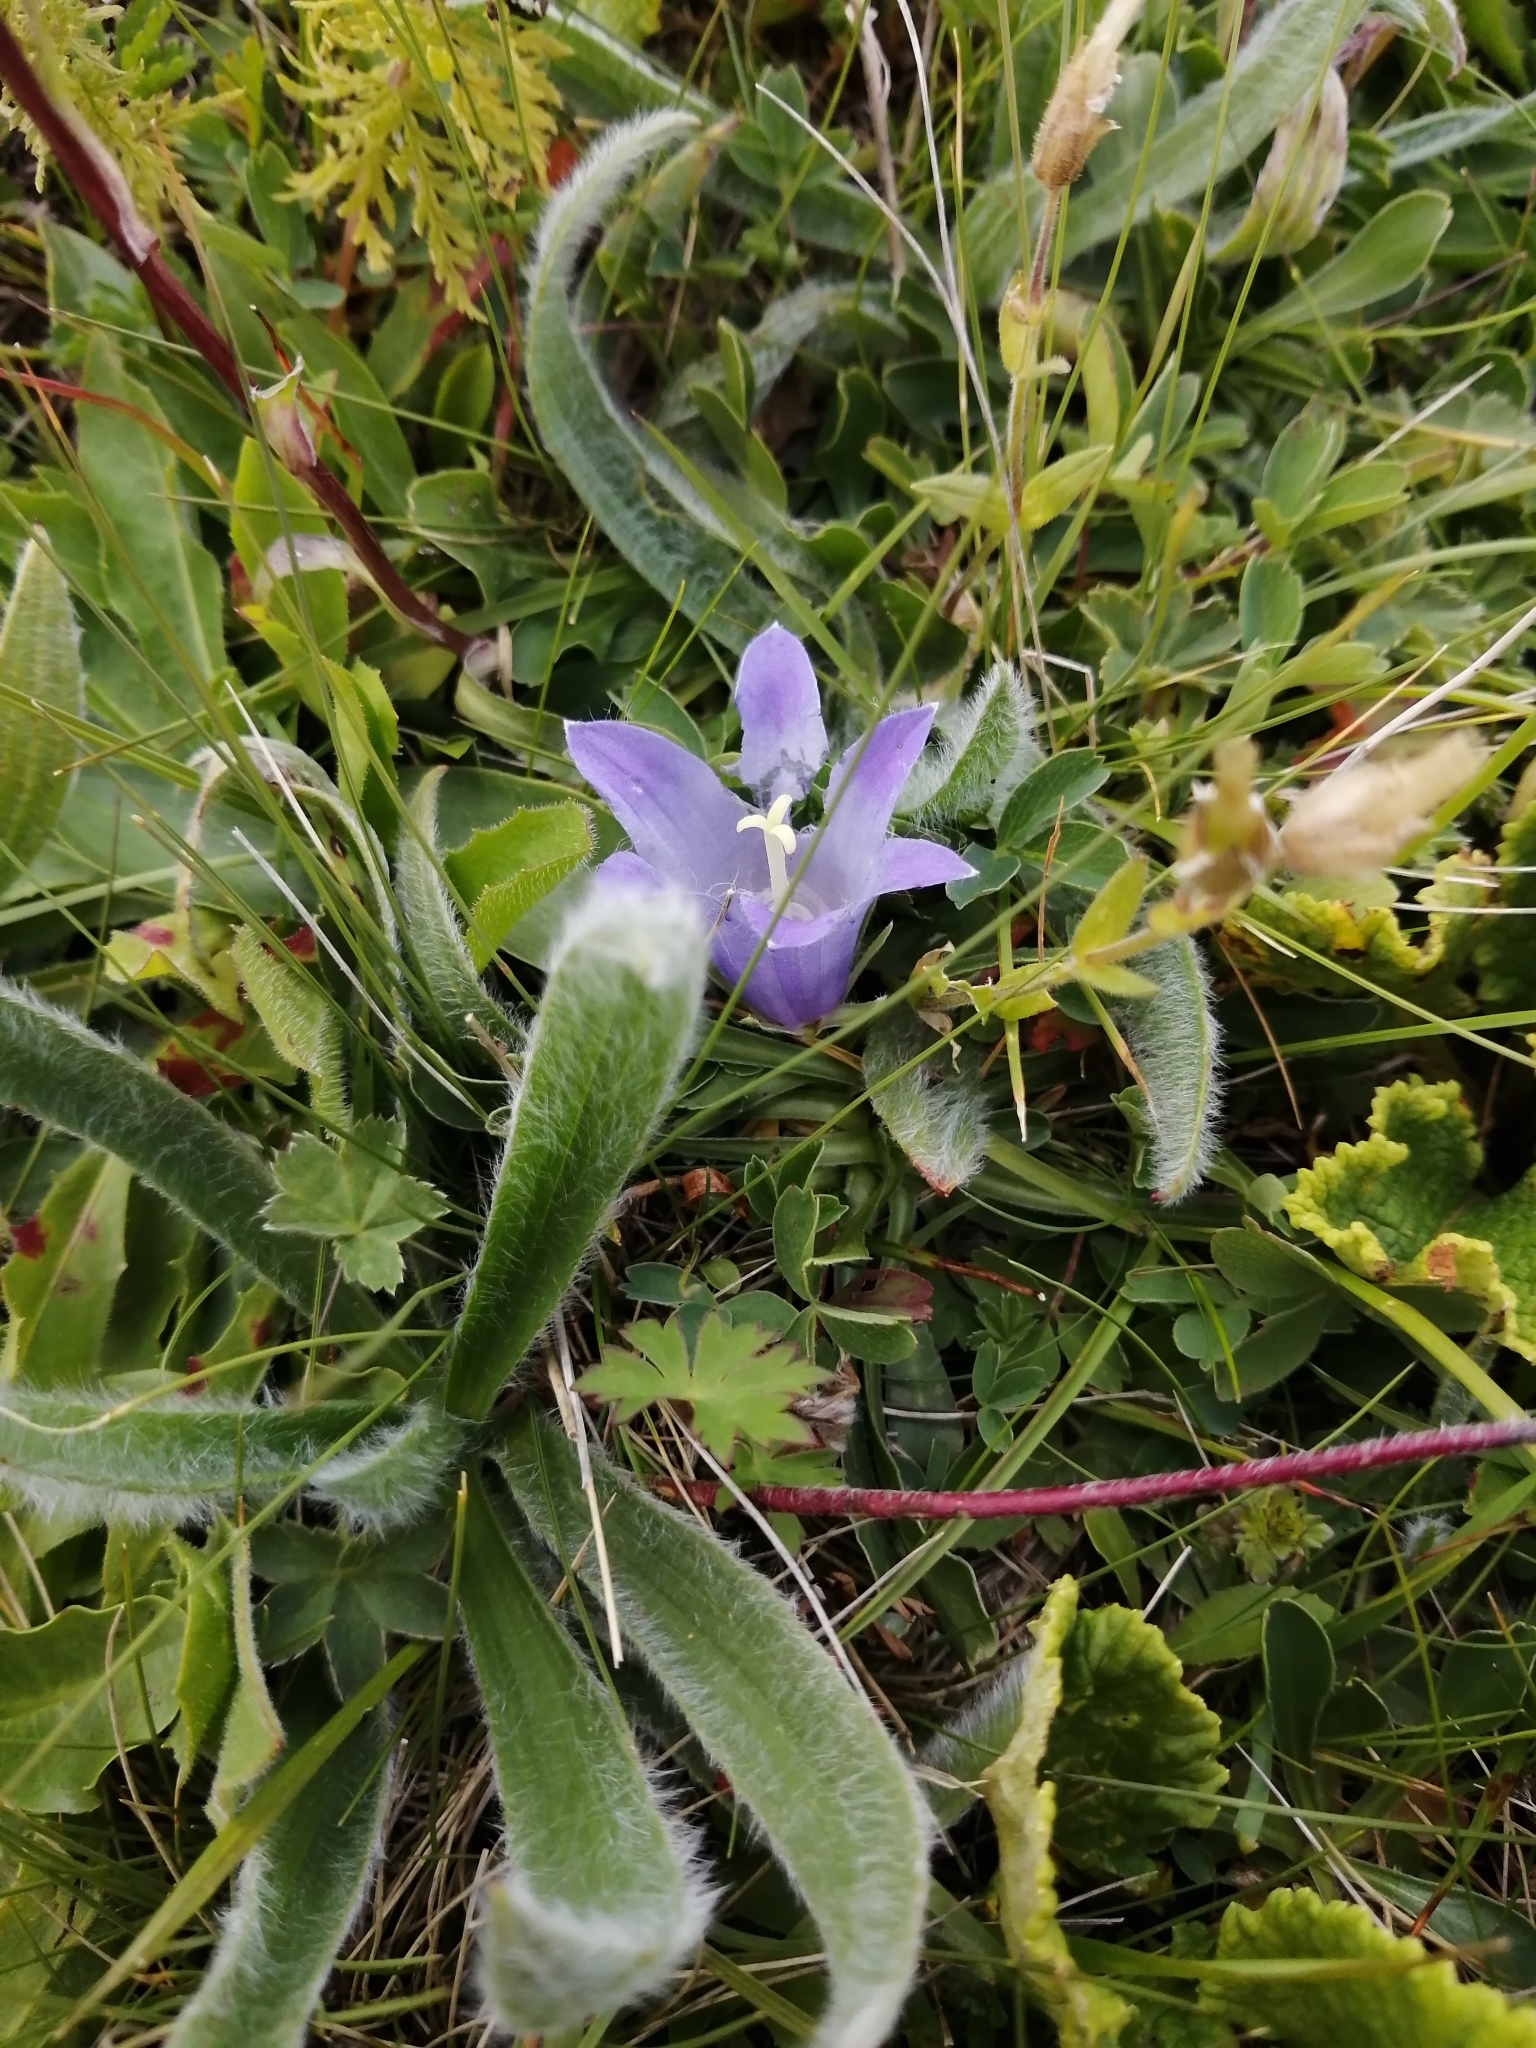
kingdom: Plantae
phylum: Tracheophyta
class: Magnoliopsida
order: Asterales
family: Campanulaceae
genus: Campanula
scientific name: Campanula tridentata
